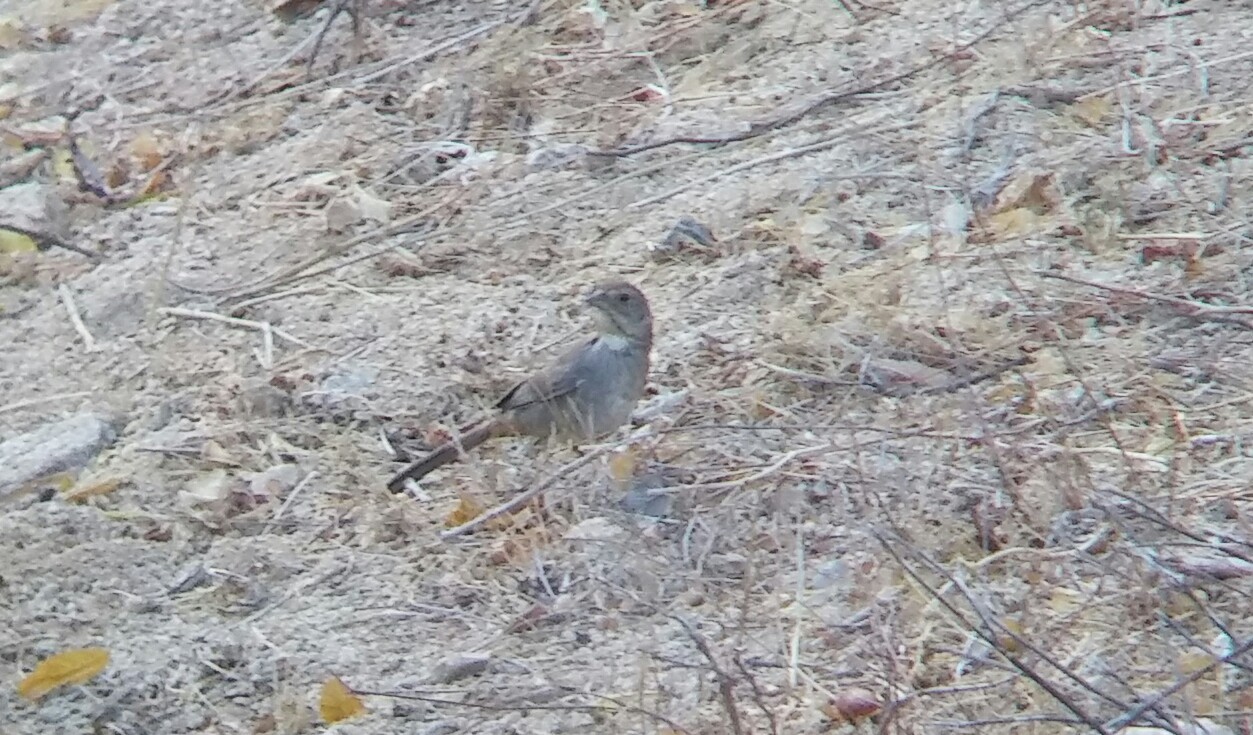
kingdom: Animalia
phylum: Chordata
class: Aves
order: Passeriformes
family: Passerellidae
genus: Melozone
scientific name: Melozone crissalis
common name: California towhee
